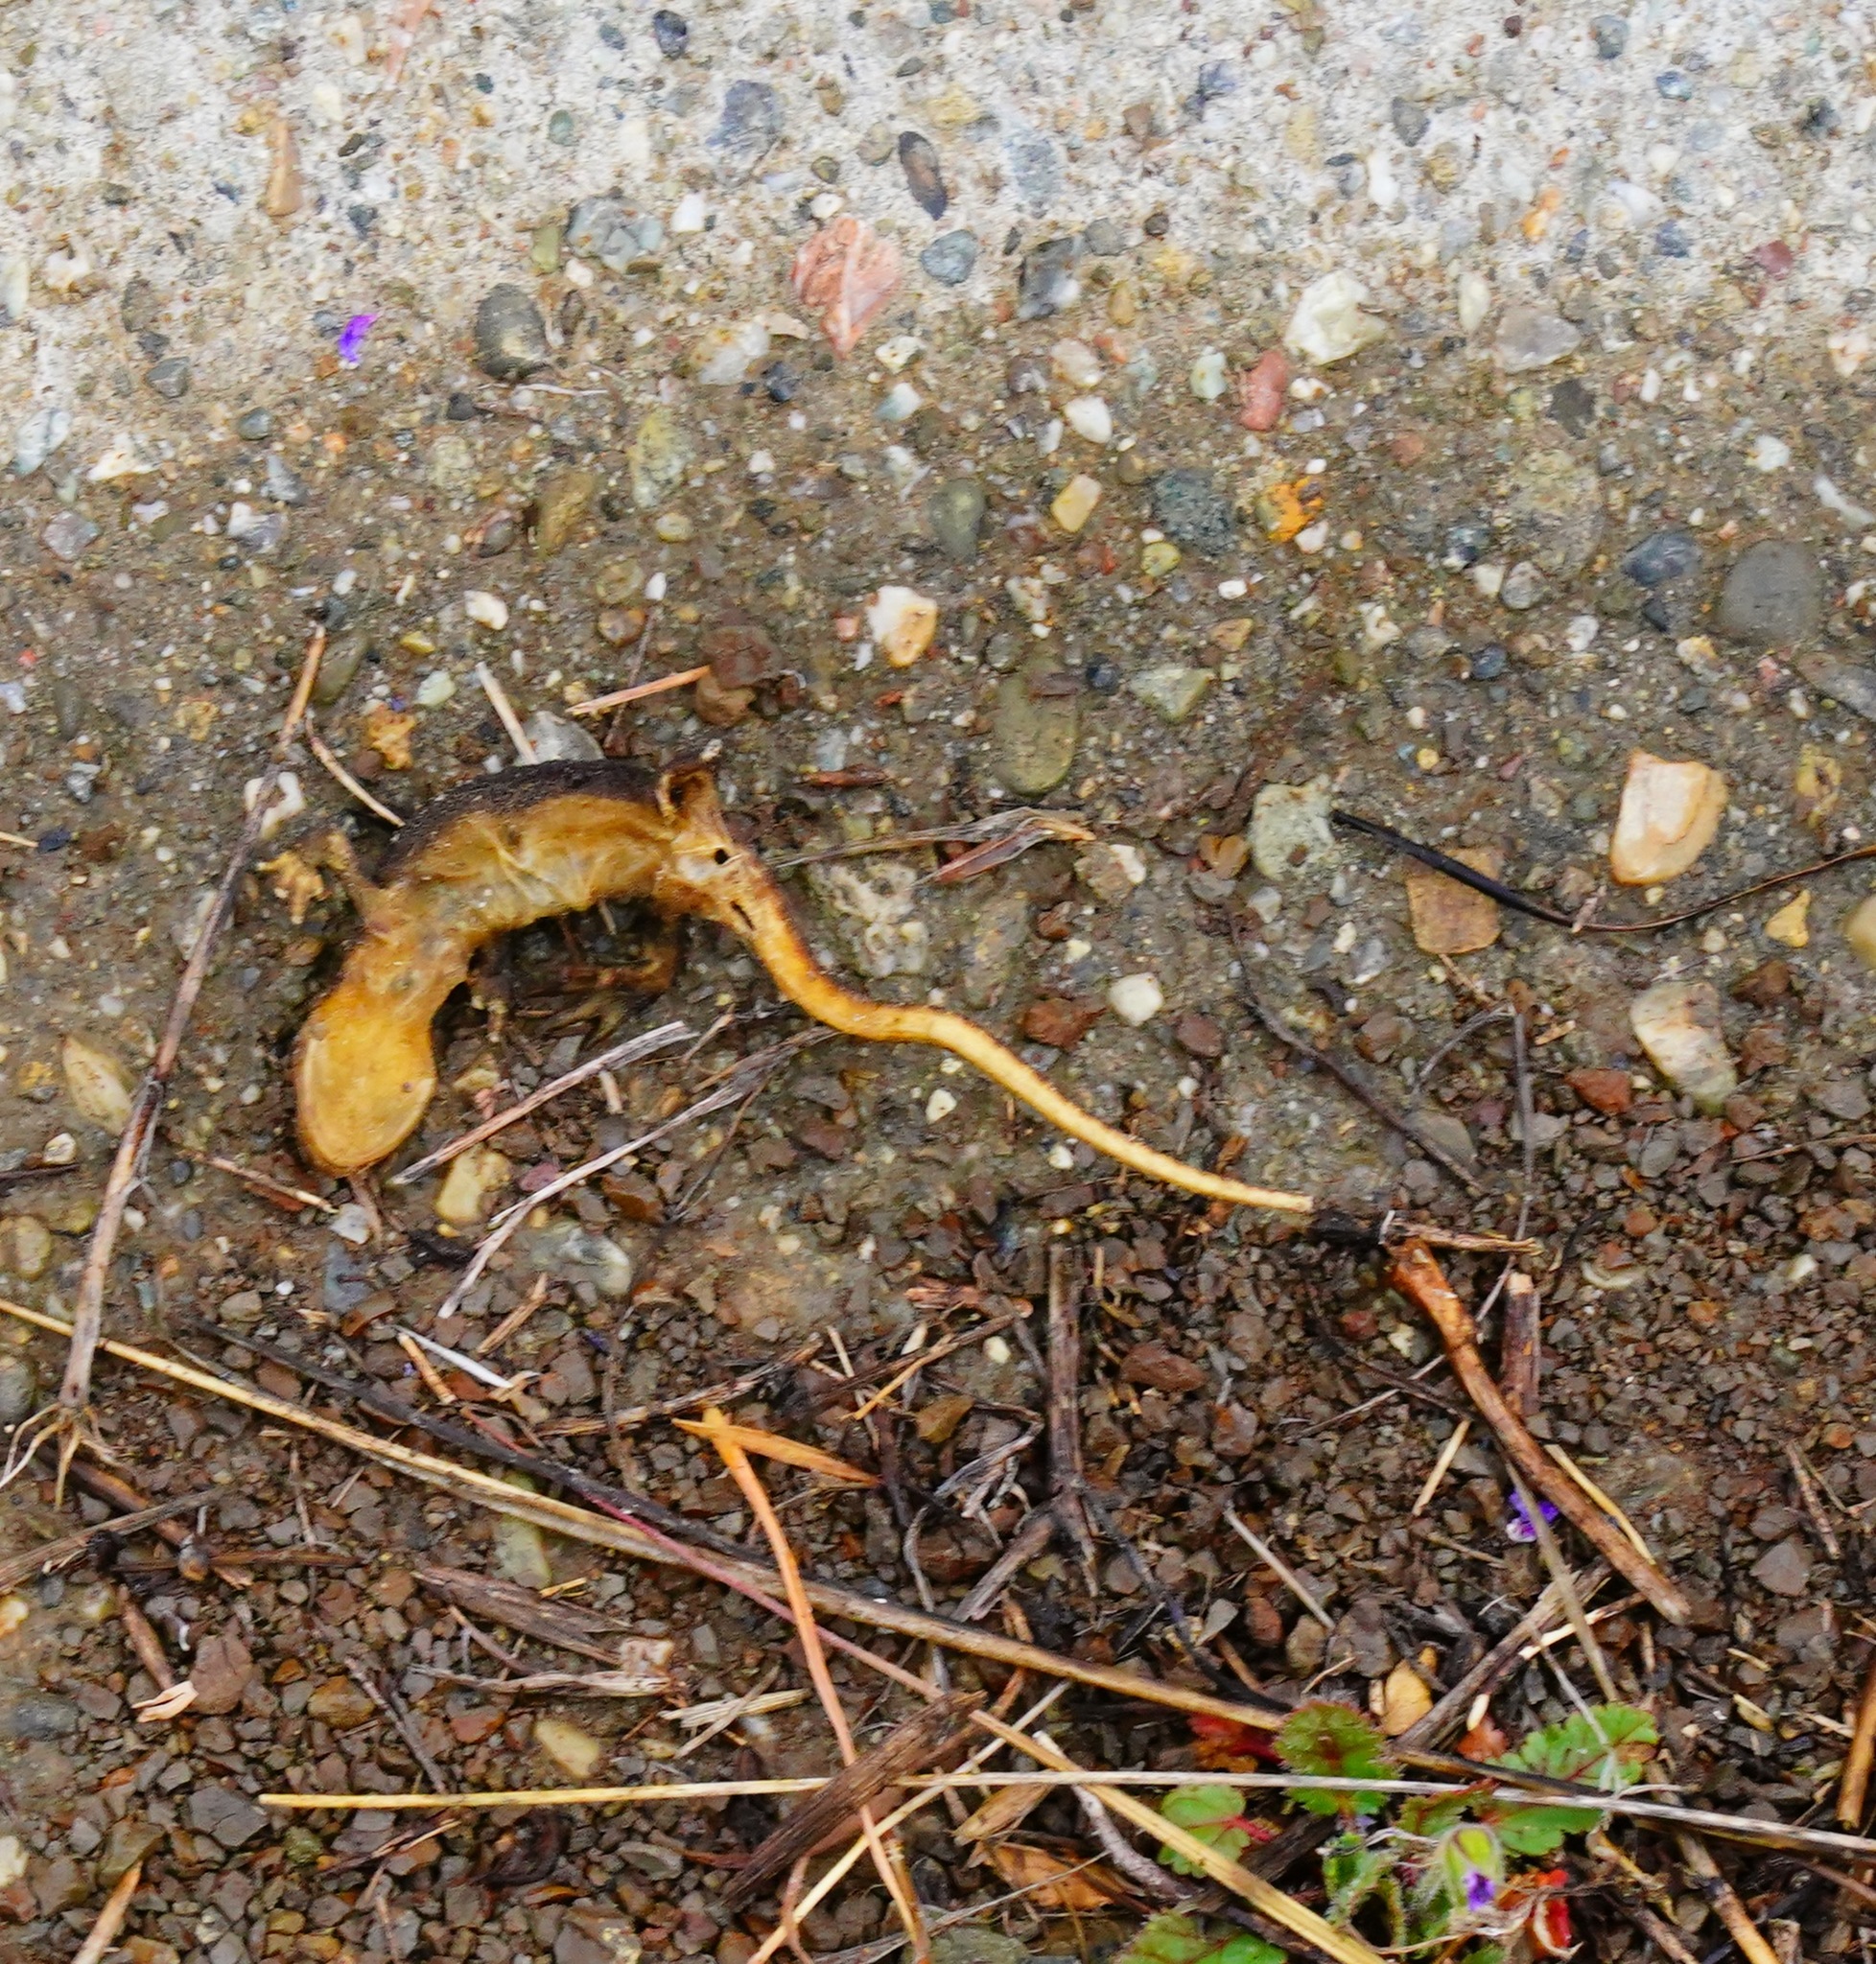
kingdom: Animalia
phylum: Chordata
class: Amphibia
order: Caudata
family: Salamandridae
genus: Taricha
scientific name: Taricha
